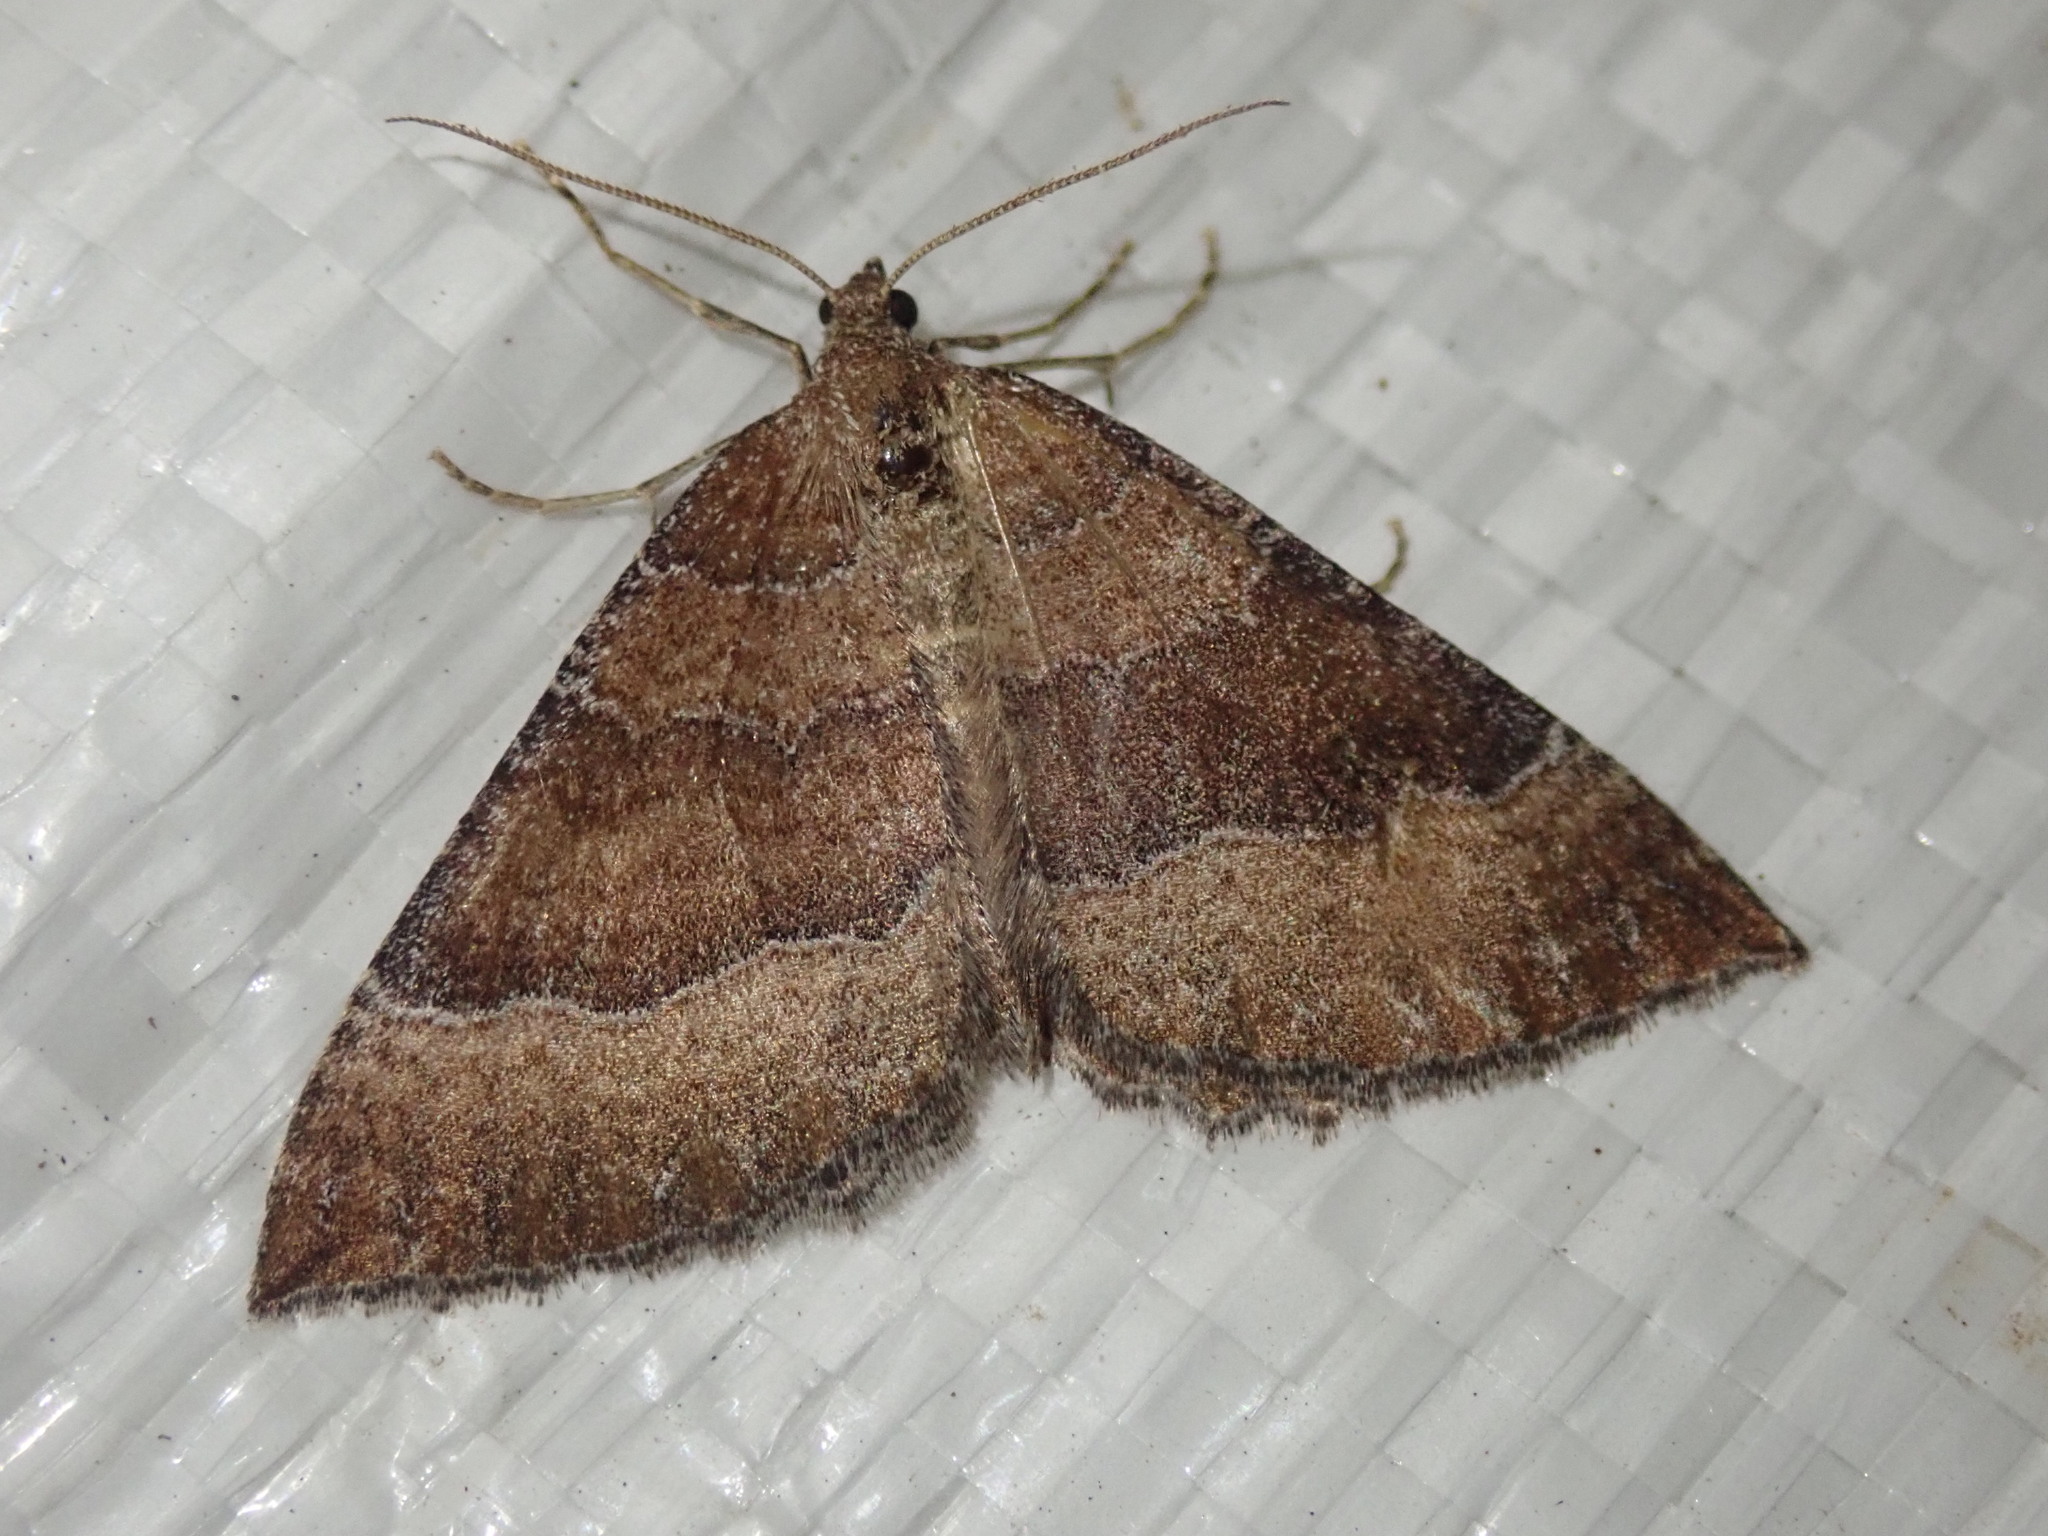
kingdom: Animalia
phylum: Arthropoda
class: Insecta
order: Lepidoptera
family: Geometridae
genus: Larentia
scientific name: Larentia clavaria
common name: Mallow
